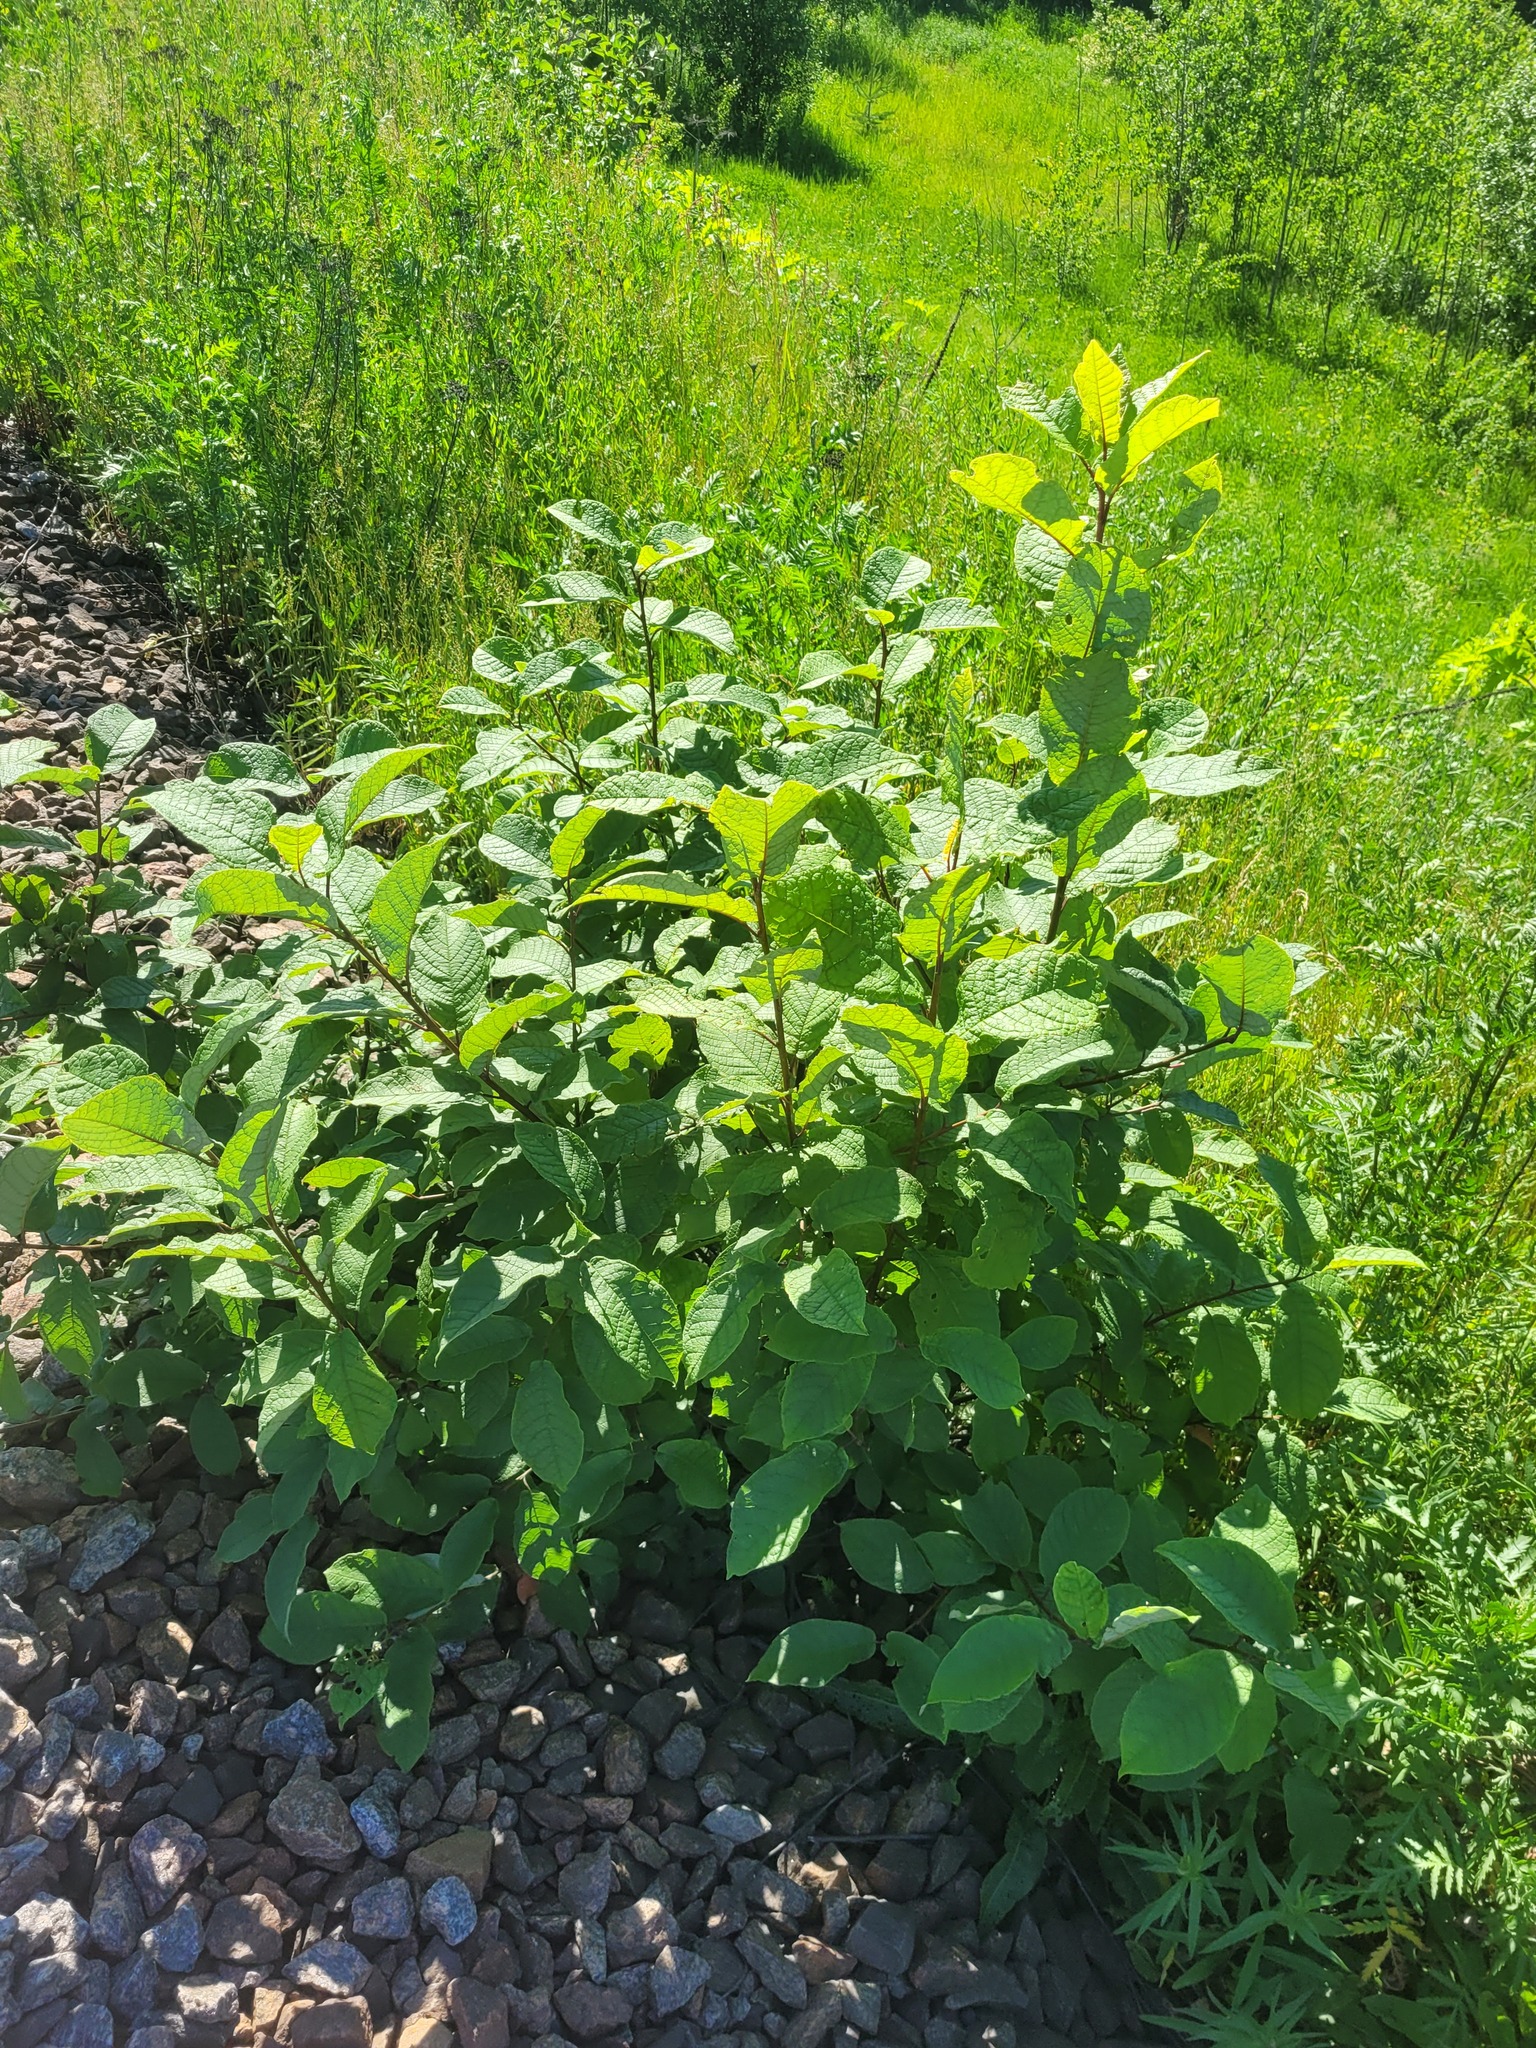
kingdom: Plantae
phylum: Tracheophyta
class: Magnoliopsida
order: Rosales
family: Rosaceae
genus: Prunus
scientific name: Prunus padus
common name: Bird cherry
